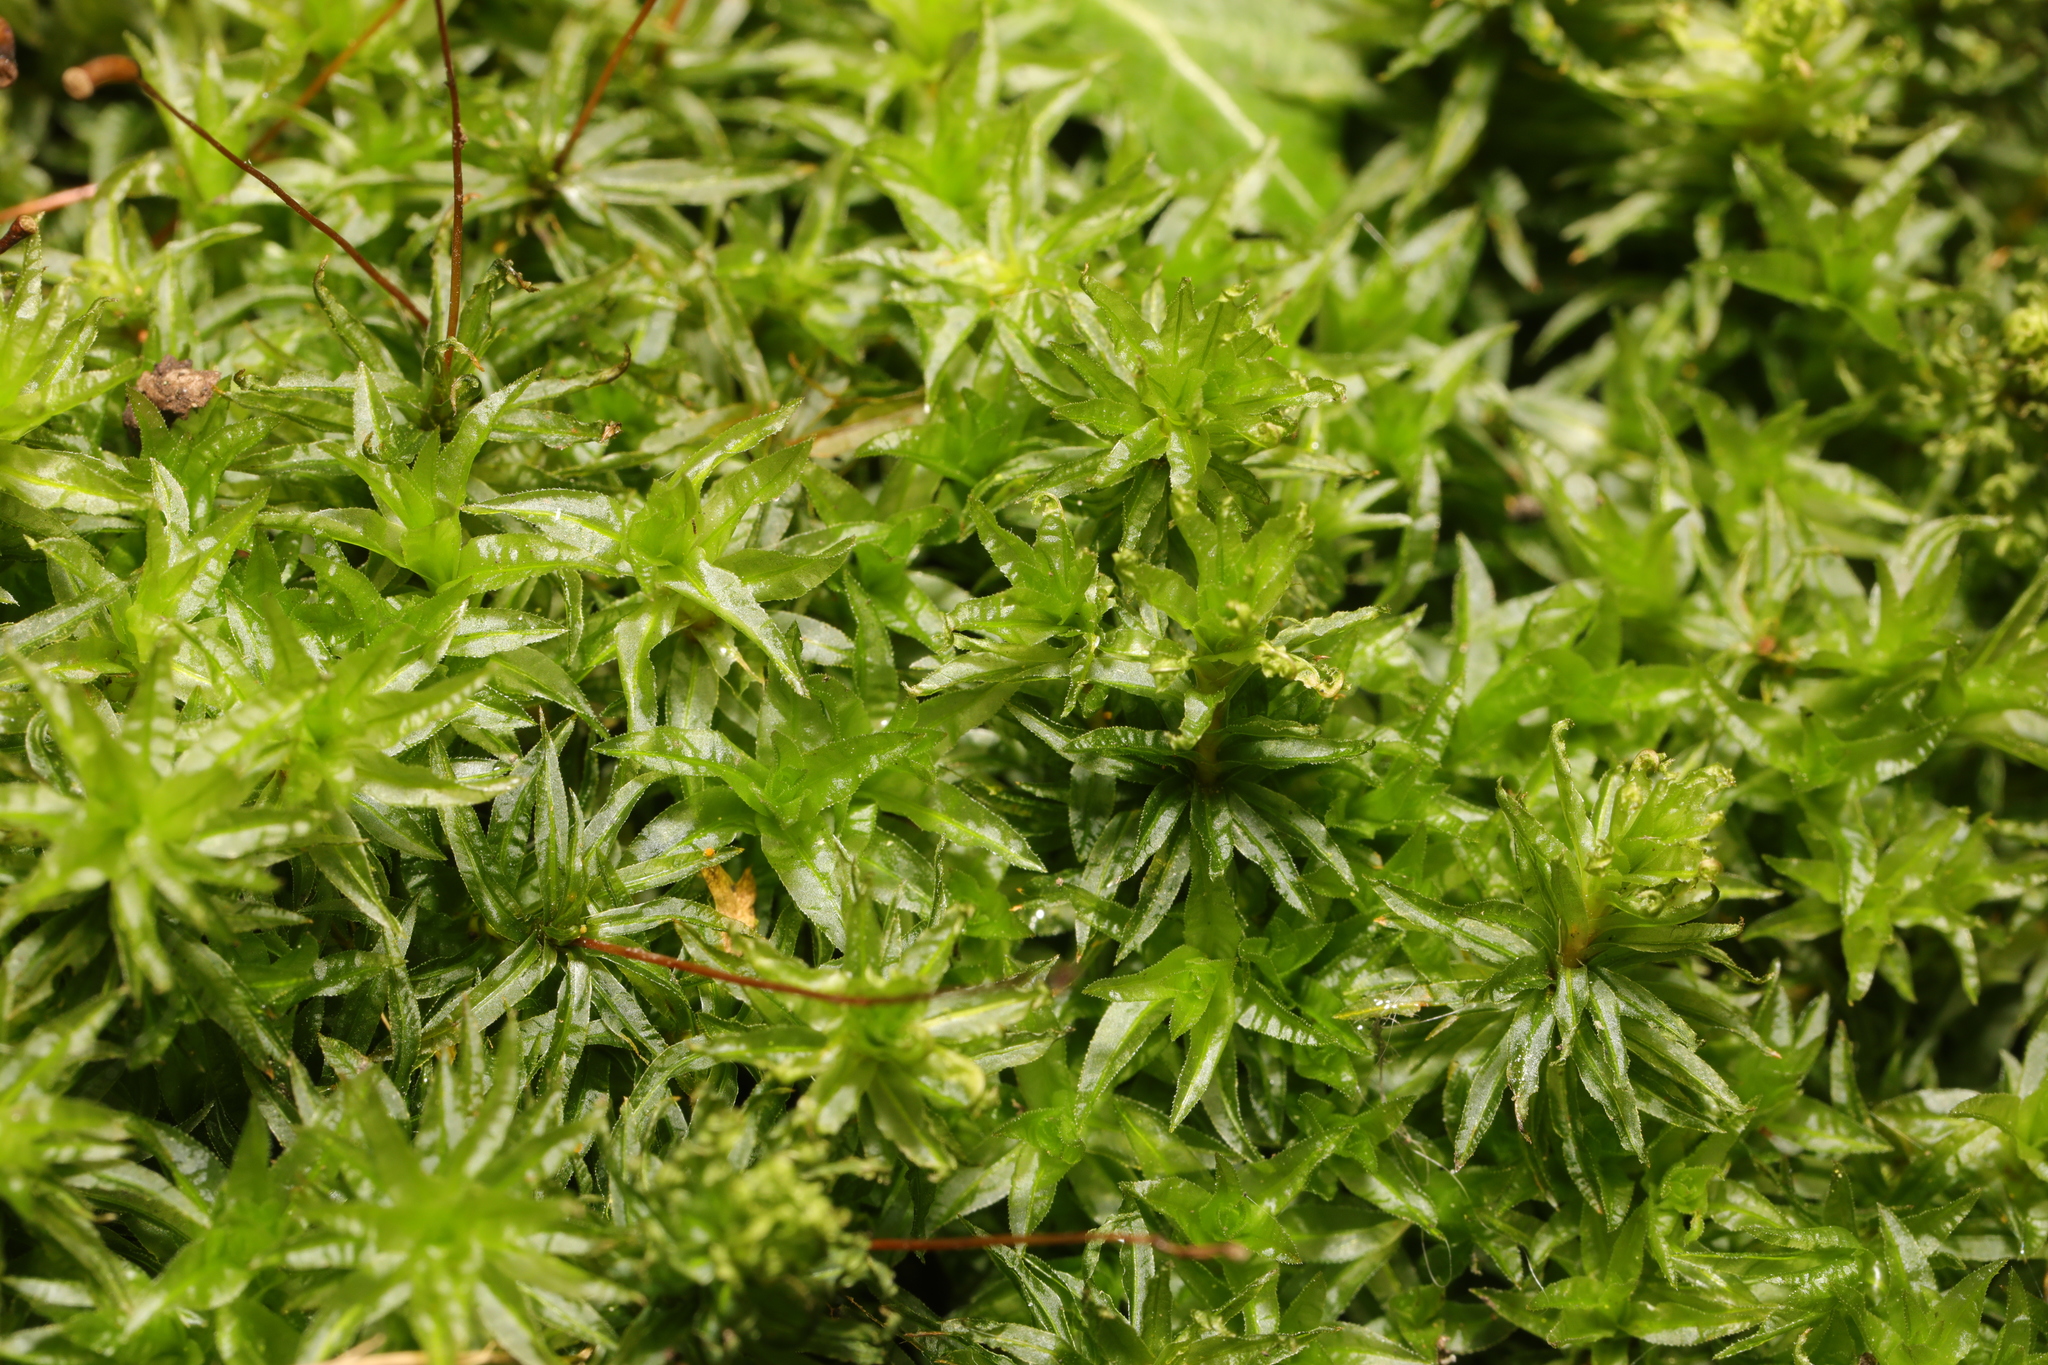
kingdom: Plantae
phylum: Bryophyta
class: Polytrichopsida
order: Polytrichales
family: Polytrichaceae
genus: Atrichum
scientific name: Atrichum undulatum
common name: Common smoothcap
